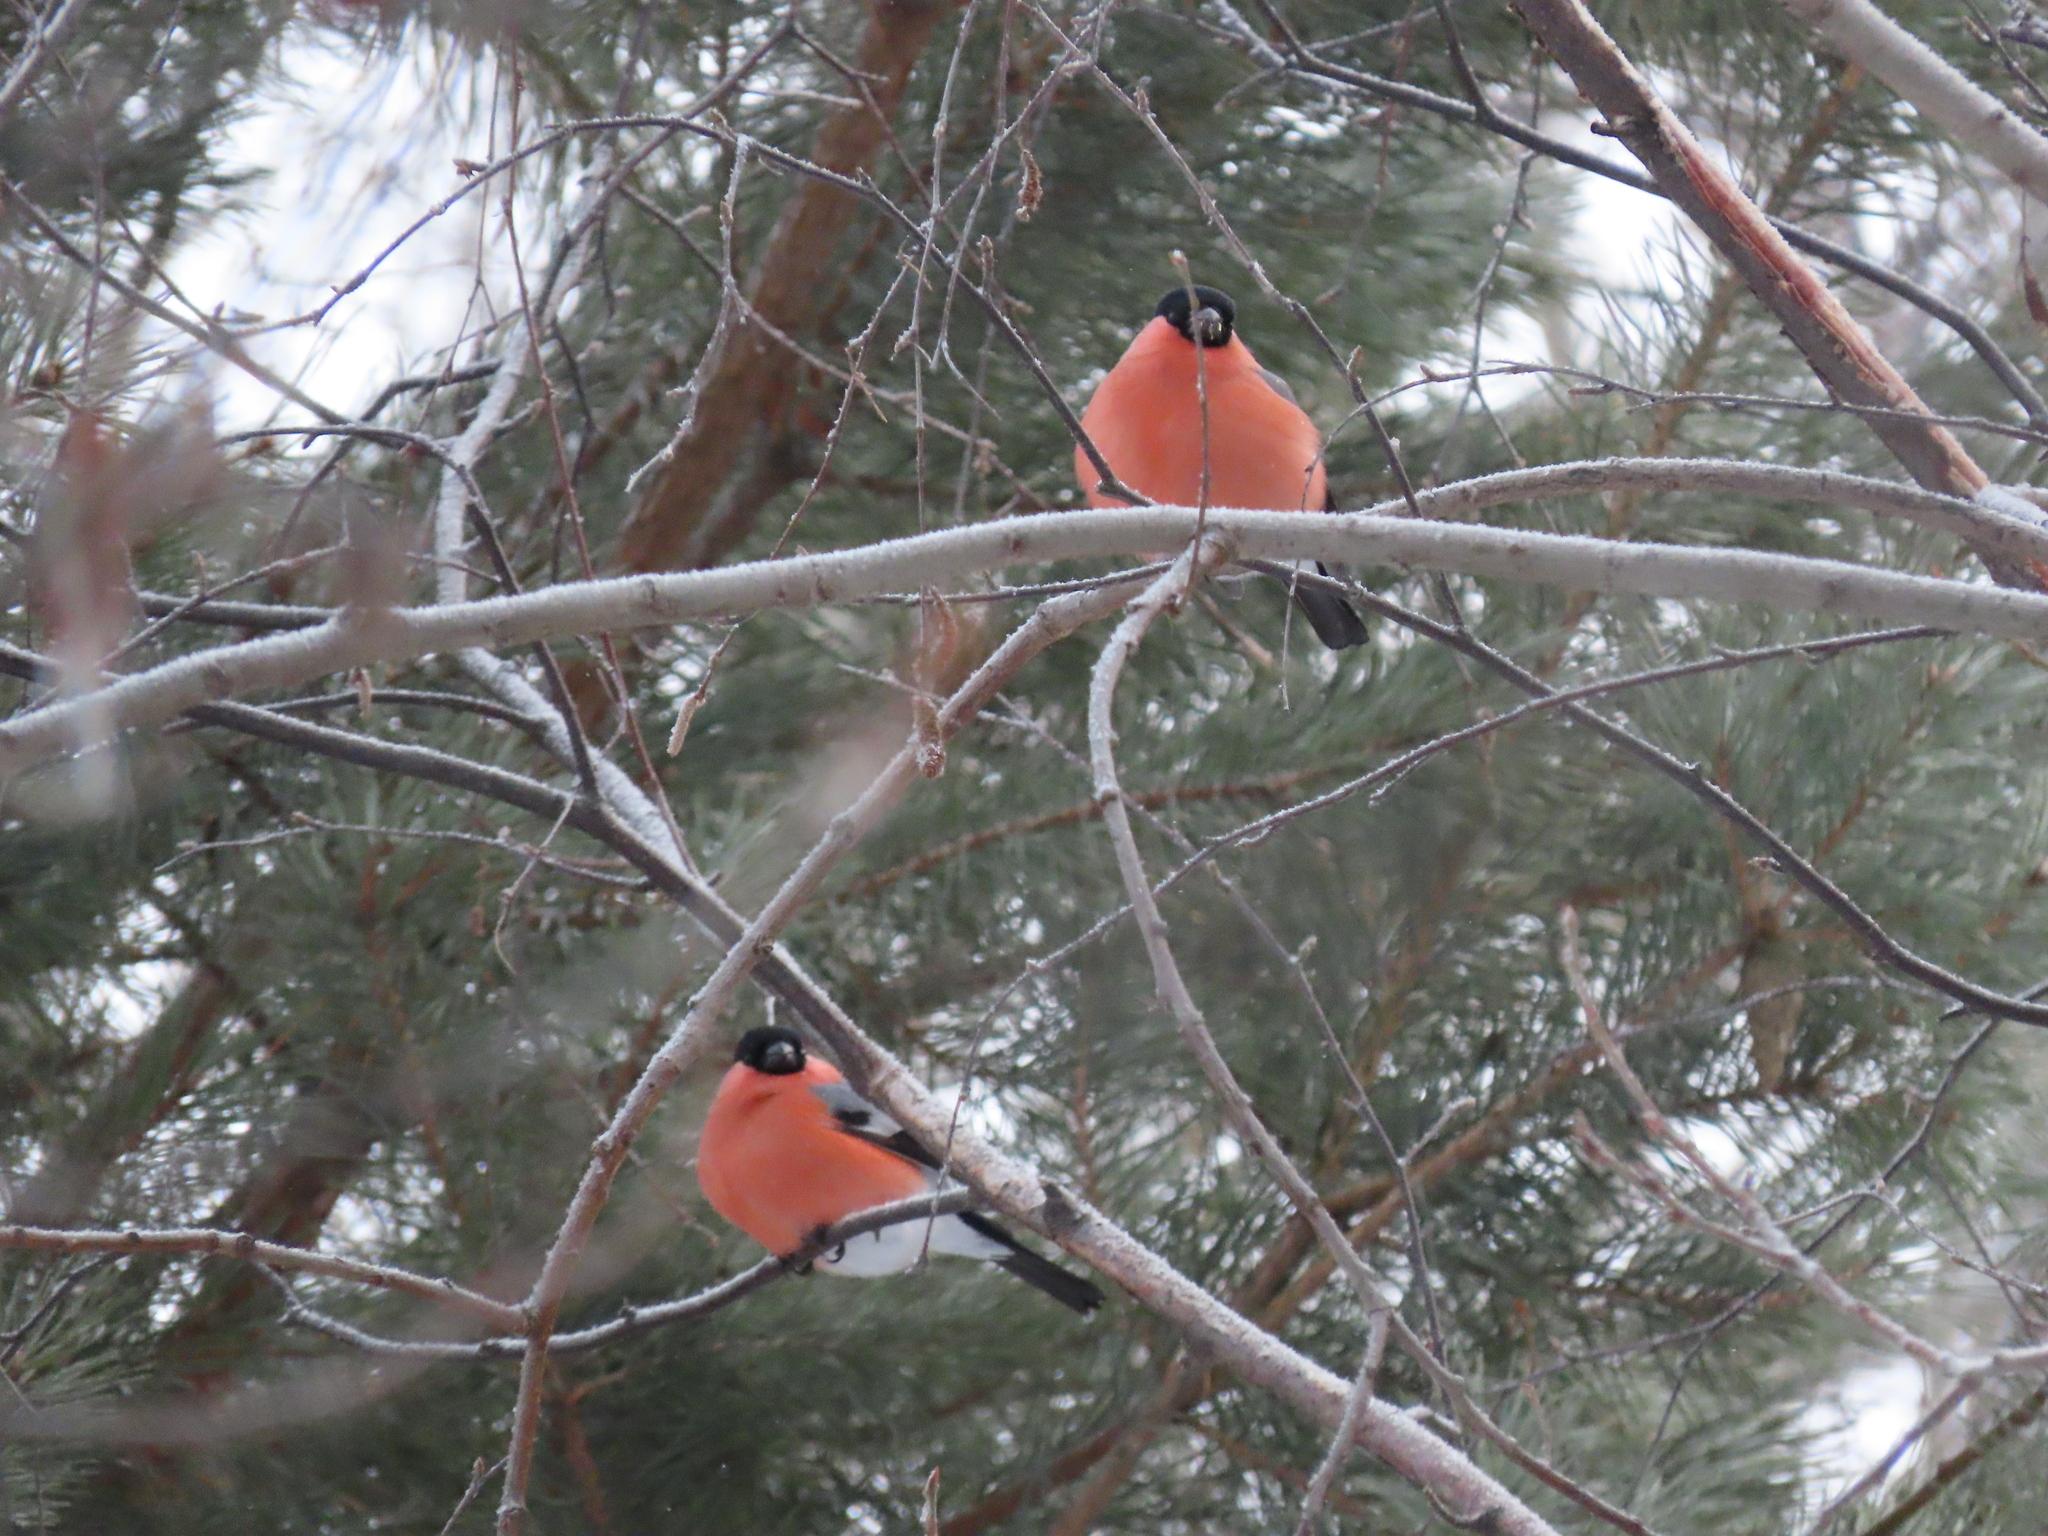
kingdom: Animalia
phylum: Chordata
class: Aves
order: Passeriformes
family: Fringillidae
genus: Pyrrhula
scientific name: Pyrrhula pyrrhula
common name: Eurasian bullfinch
